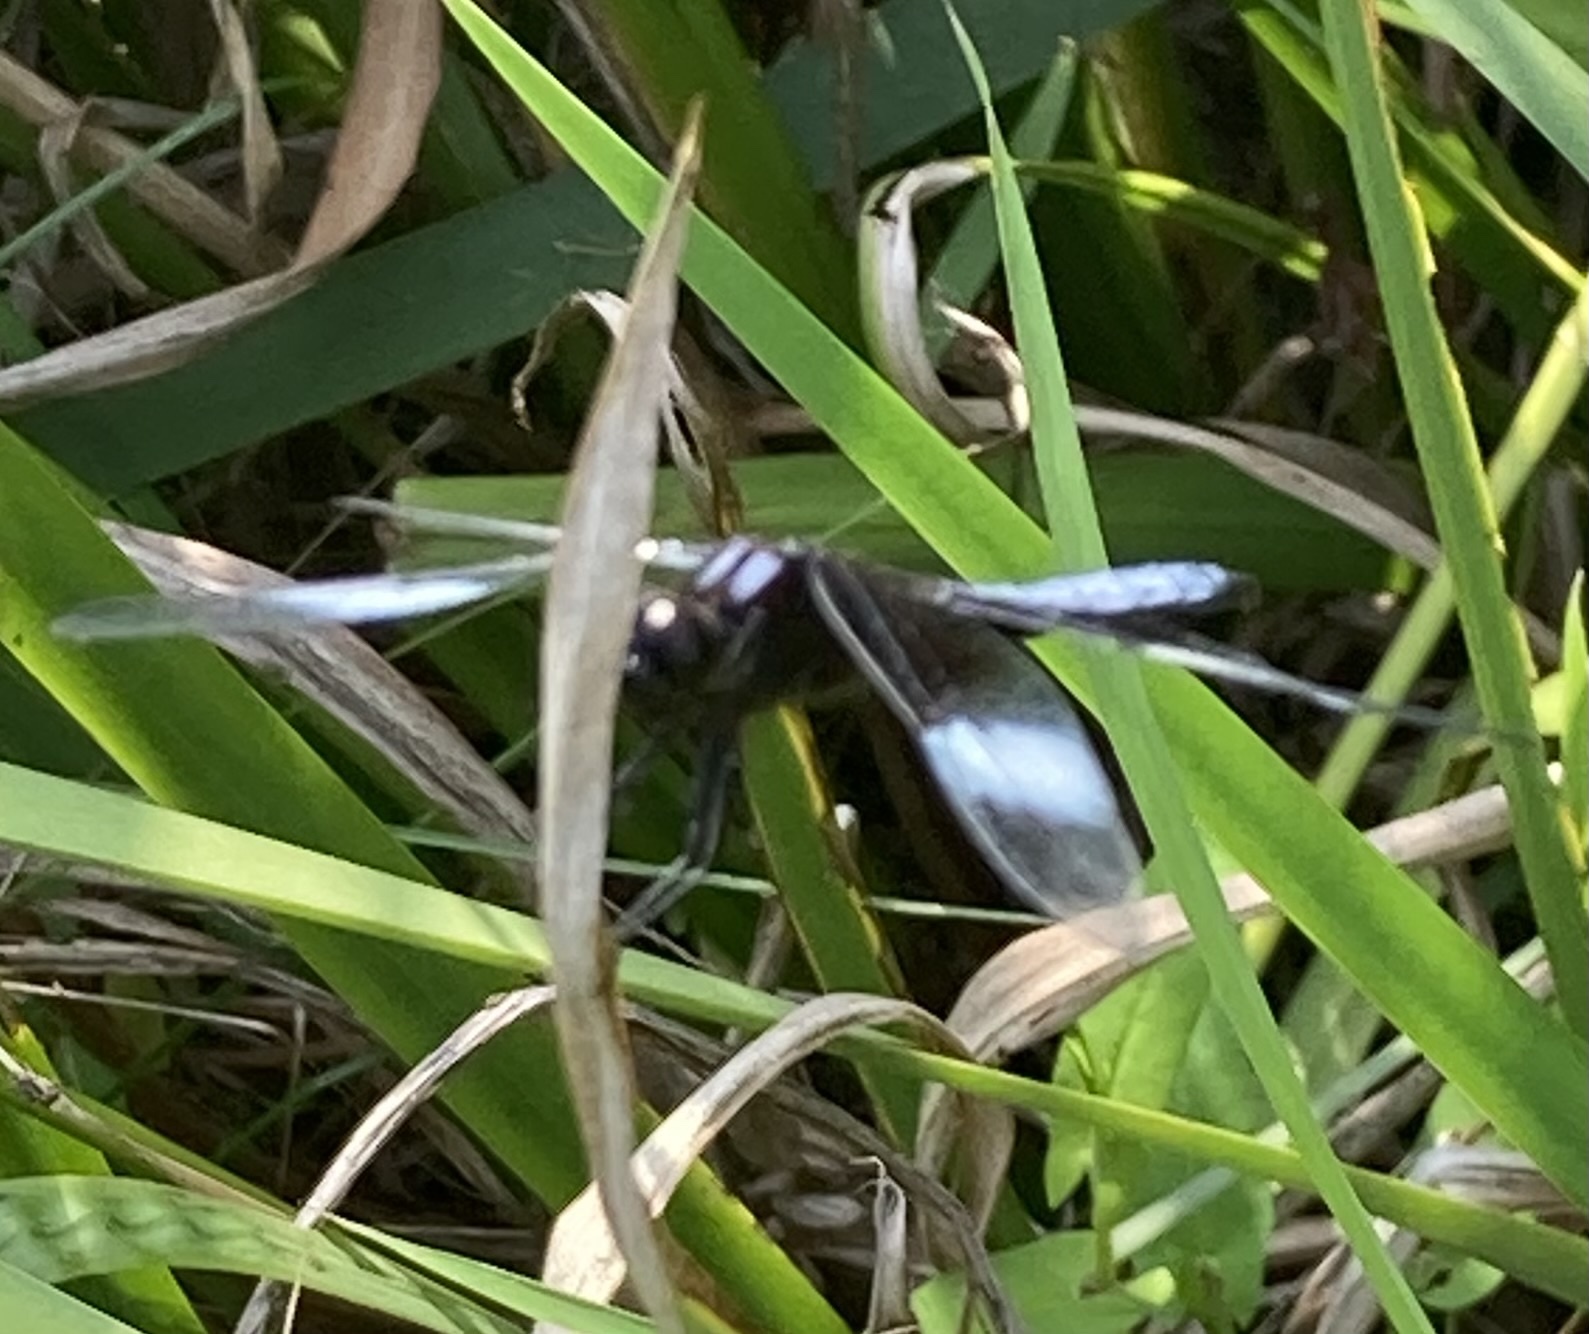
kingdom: Animalia
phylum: Arthropoda
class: Insecta
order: Odonata
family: Libellulidae
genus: Libellula
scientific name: Libellula luctuosa
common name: Widow skimmer
